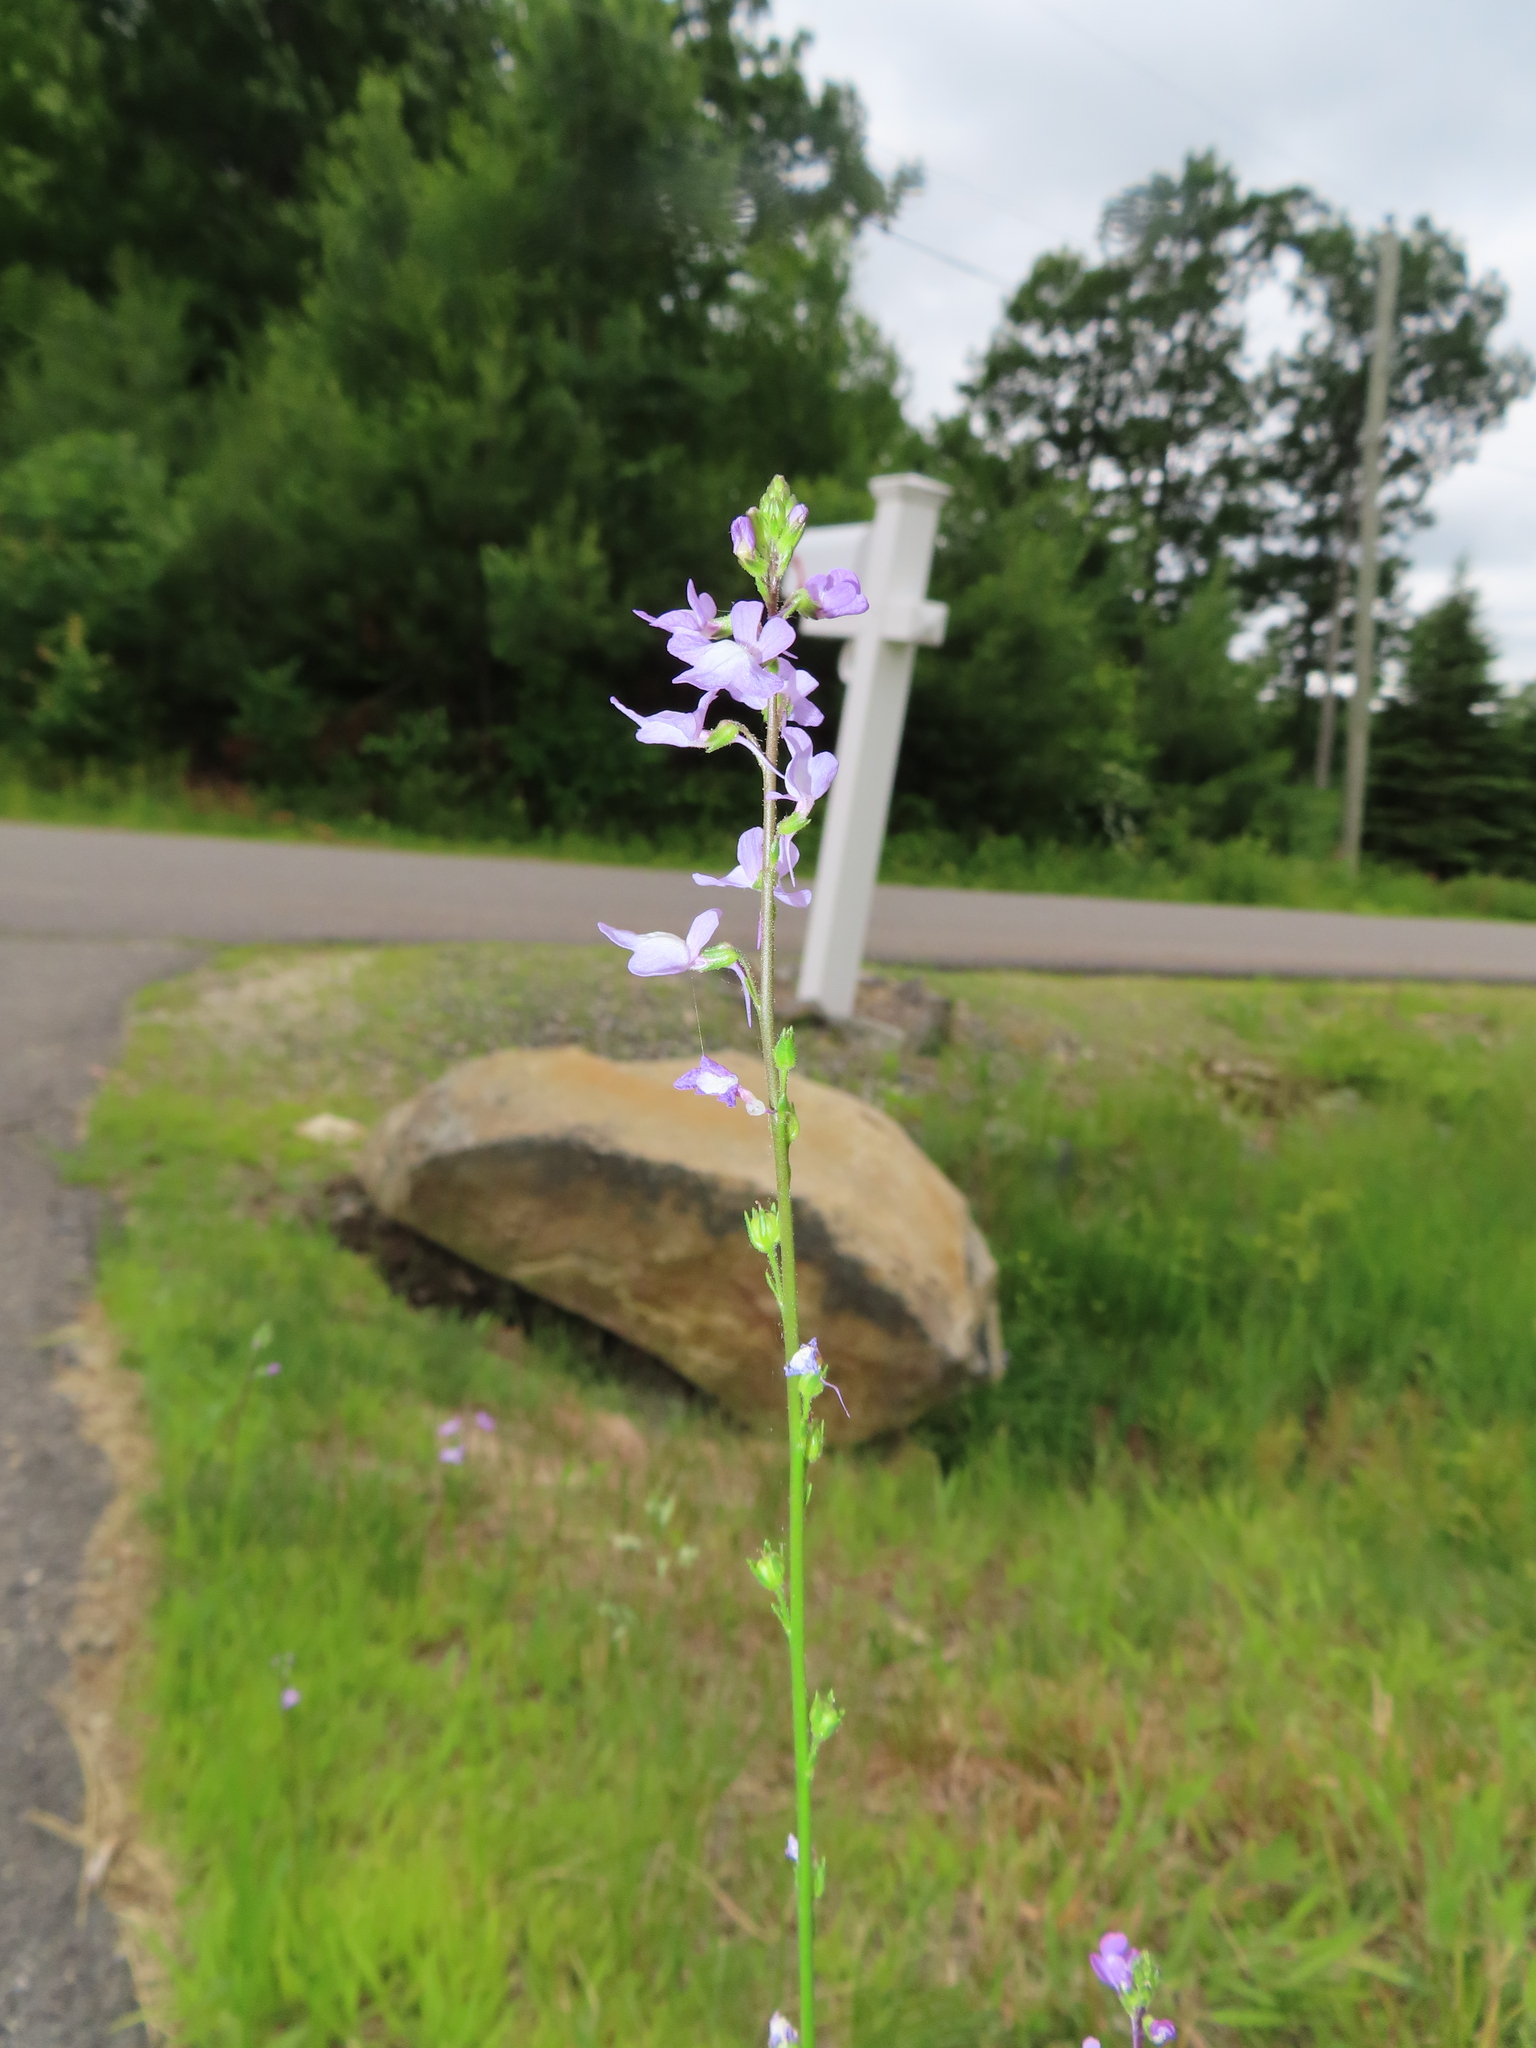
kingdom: Plantae
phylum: Tracheophyta
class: Magnoliopsida
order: Lamiales
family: Plantaginaceae
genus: Nuttallanthus
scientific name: Nuttallanthus canadensis
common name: Blue toadflax
